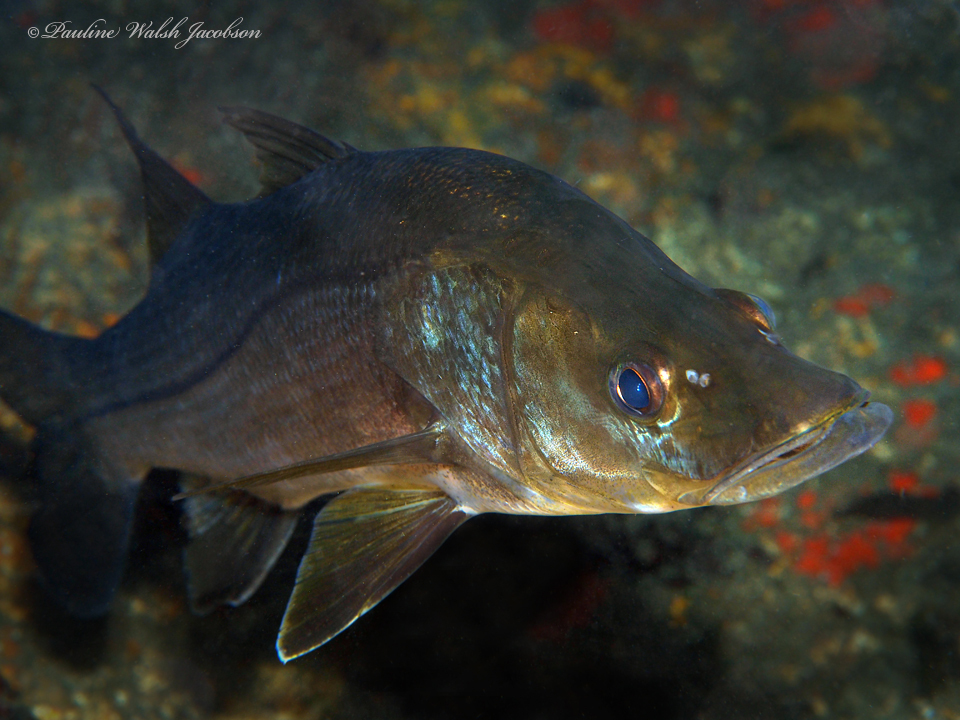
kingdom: Animalia
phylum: Chordata
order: Perciformes
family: Centropomidae
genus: Centropomus
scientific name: Centropomus undecimalis
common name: Snook
